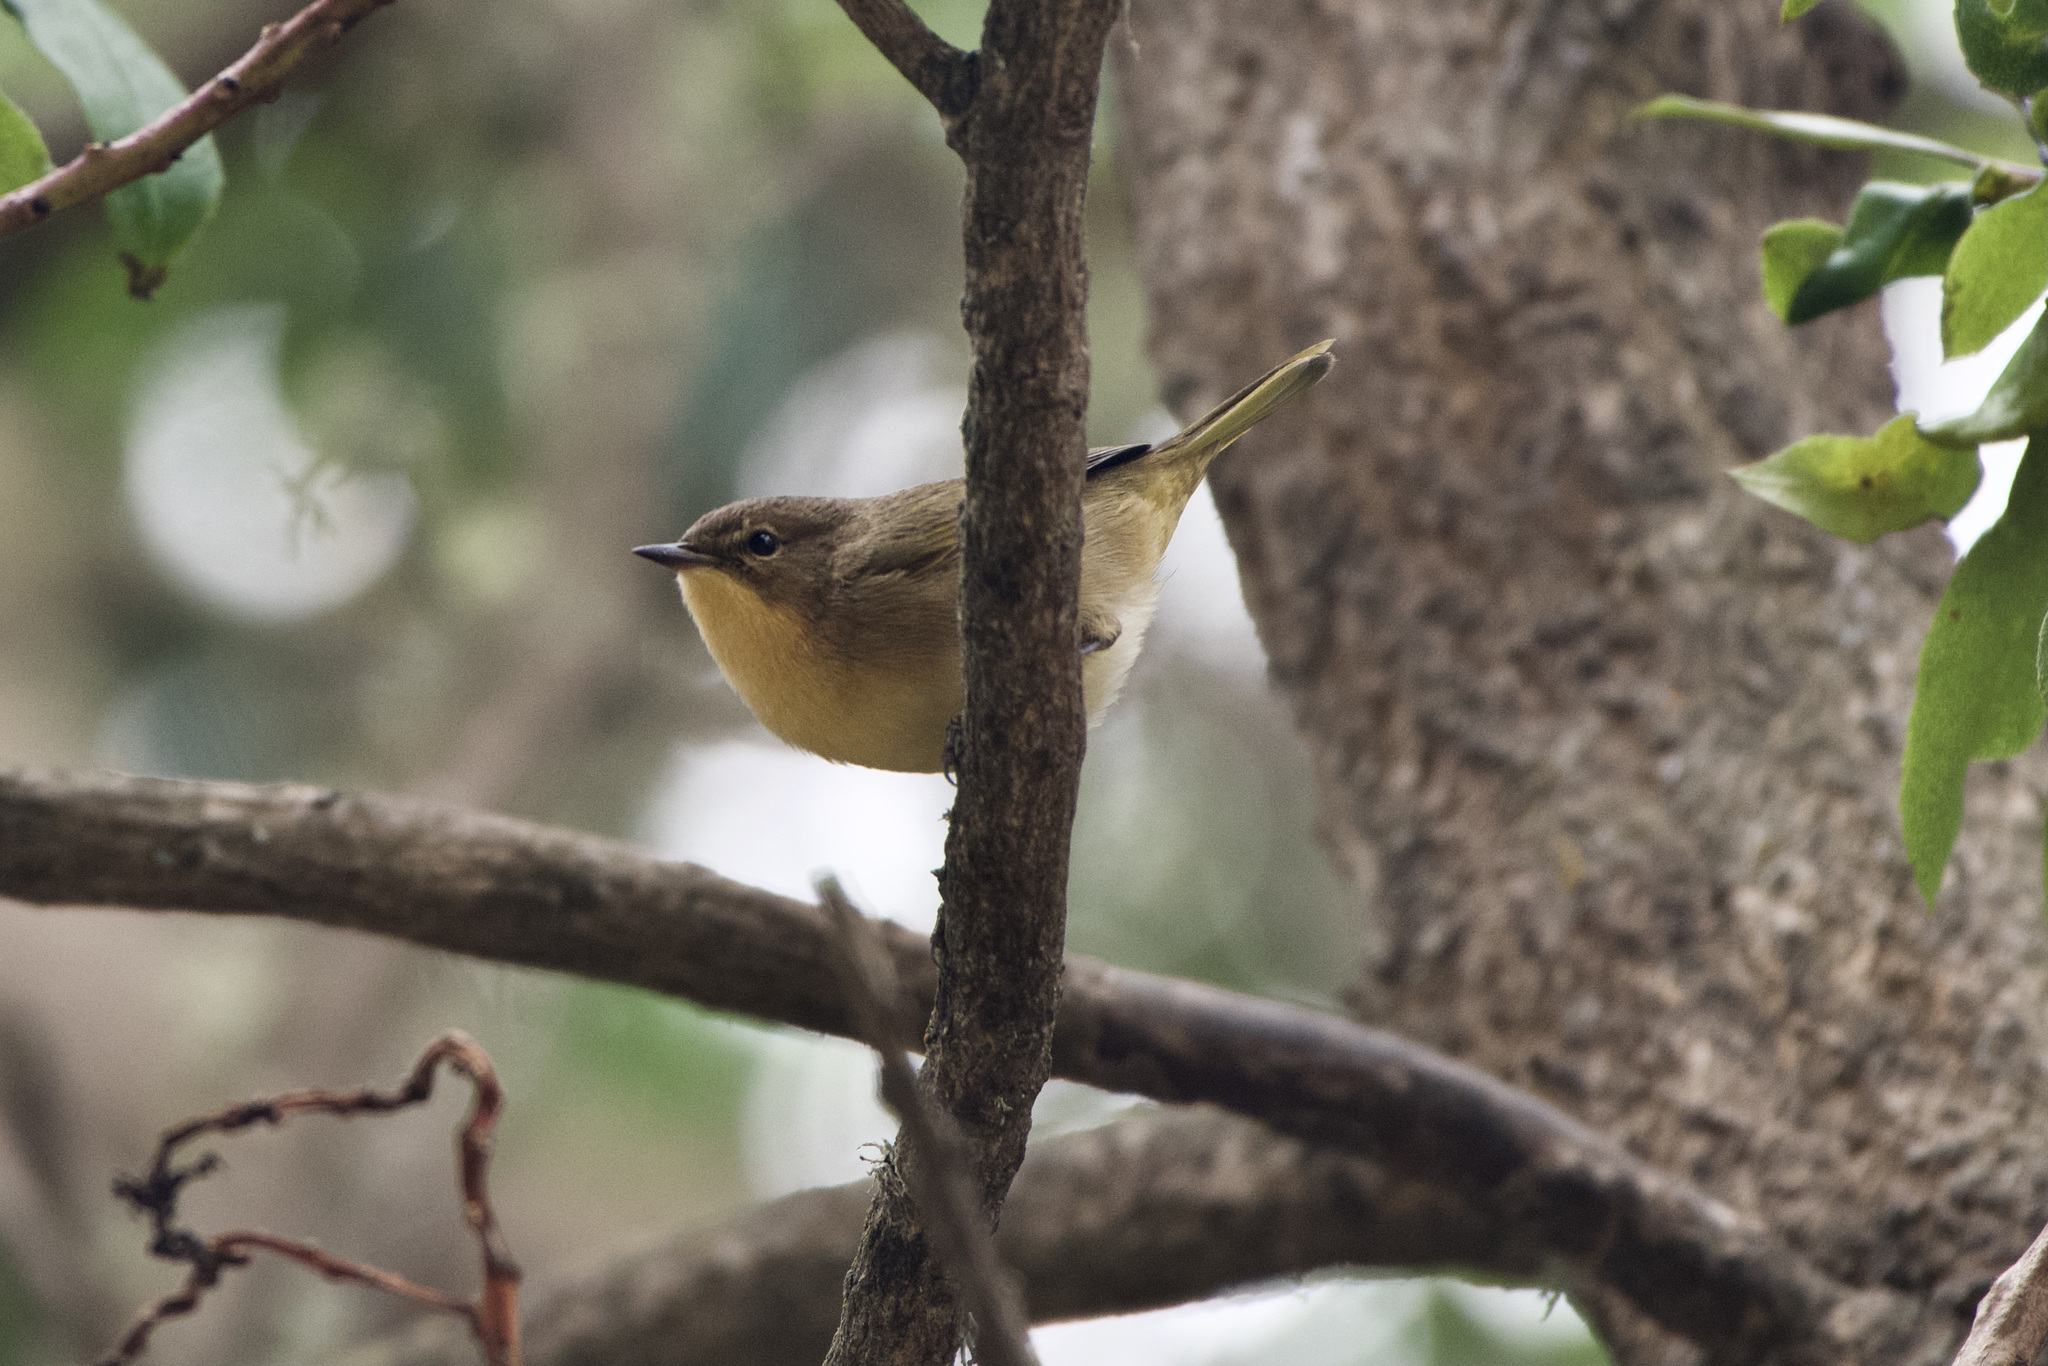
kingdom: Animalia
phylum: Chordata
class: Aves
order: Passeriformes
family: Parulidae
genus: Geothlypis
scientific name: Geothlypis trichas
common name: Common yellowthroat
